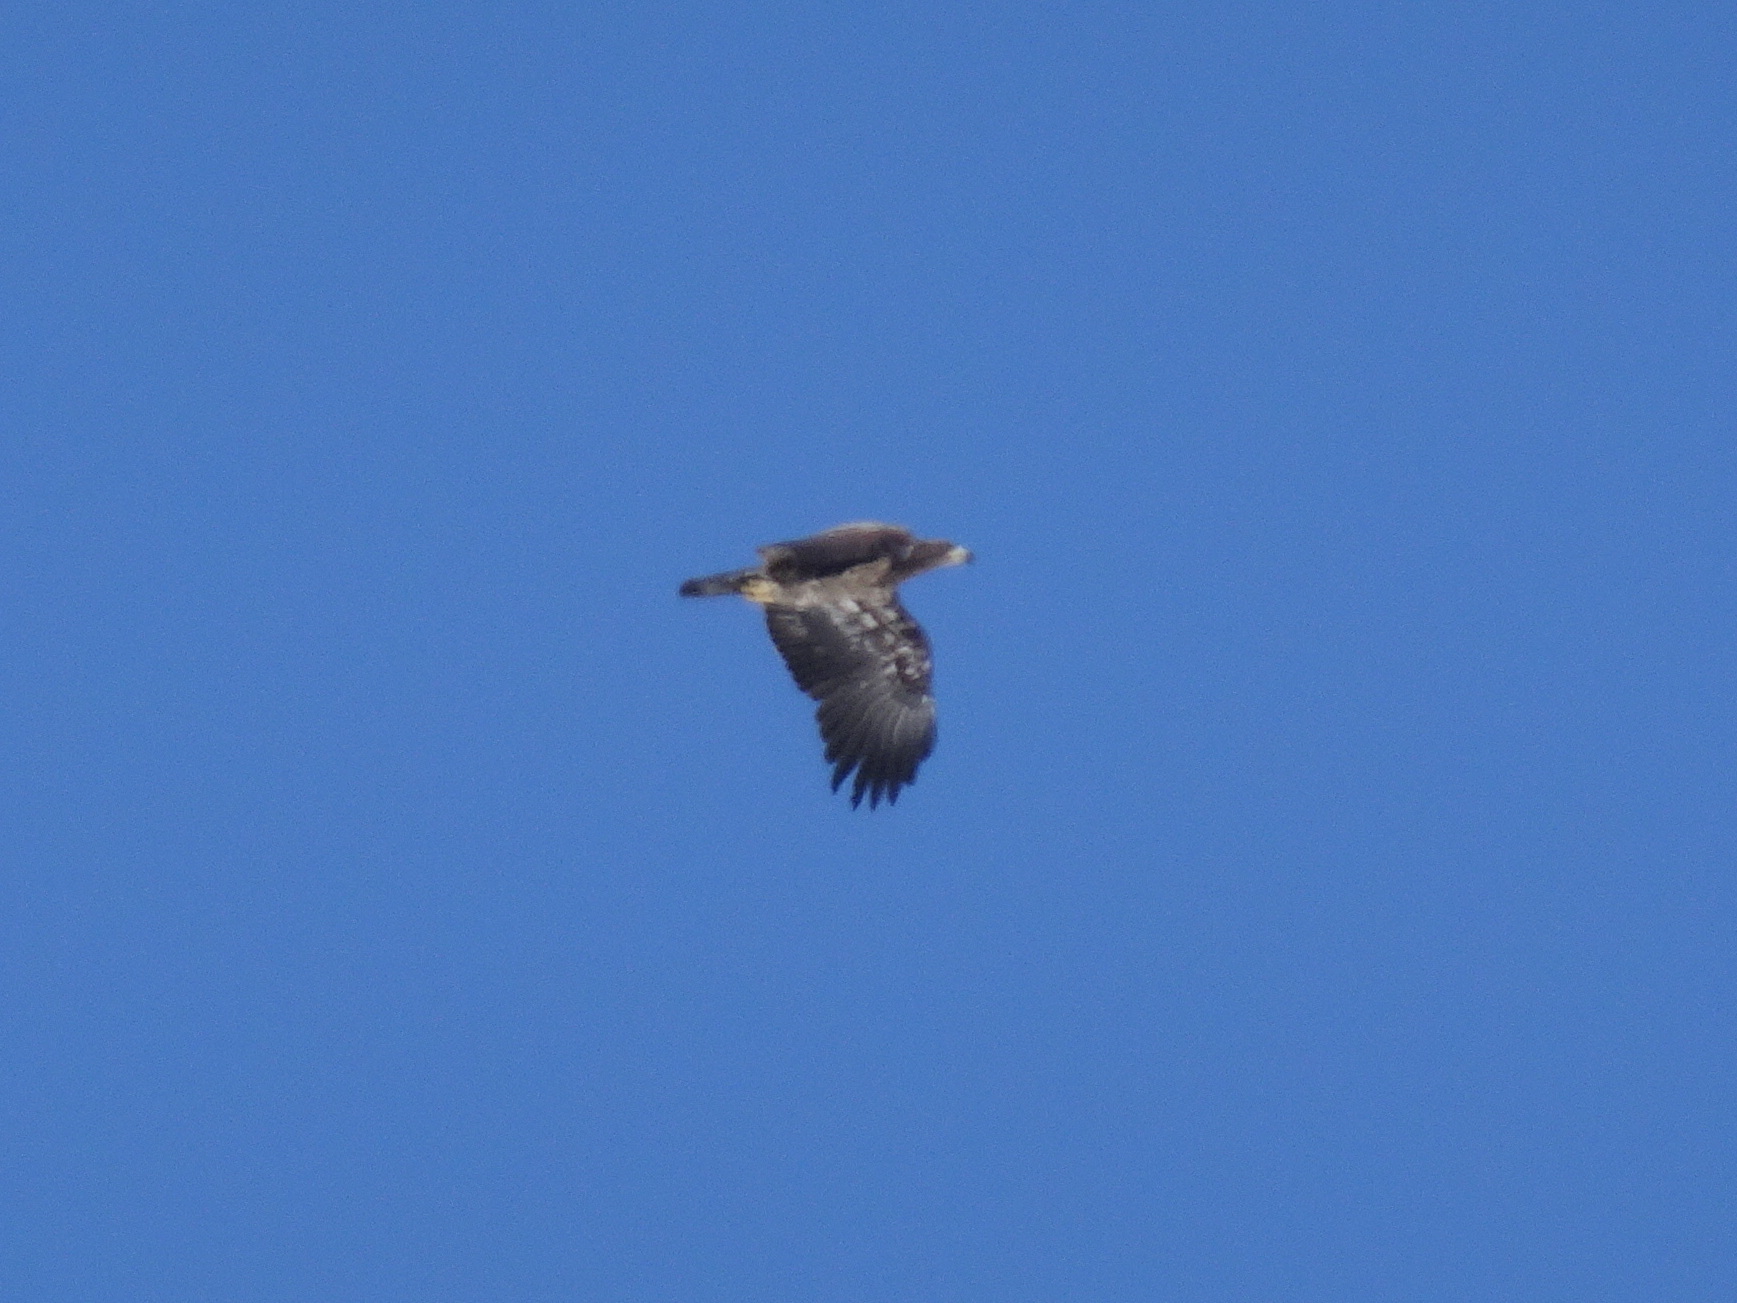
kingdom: Animalia
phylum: Chordata
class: Aves
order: Accipitriformes
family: Accipitridae
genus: Haliaeetus
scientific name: Haliaeetus leucocephalus
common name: Bald eagle
